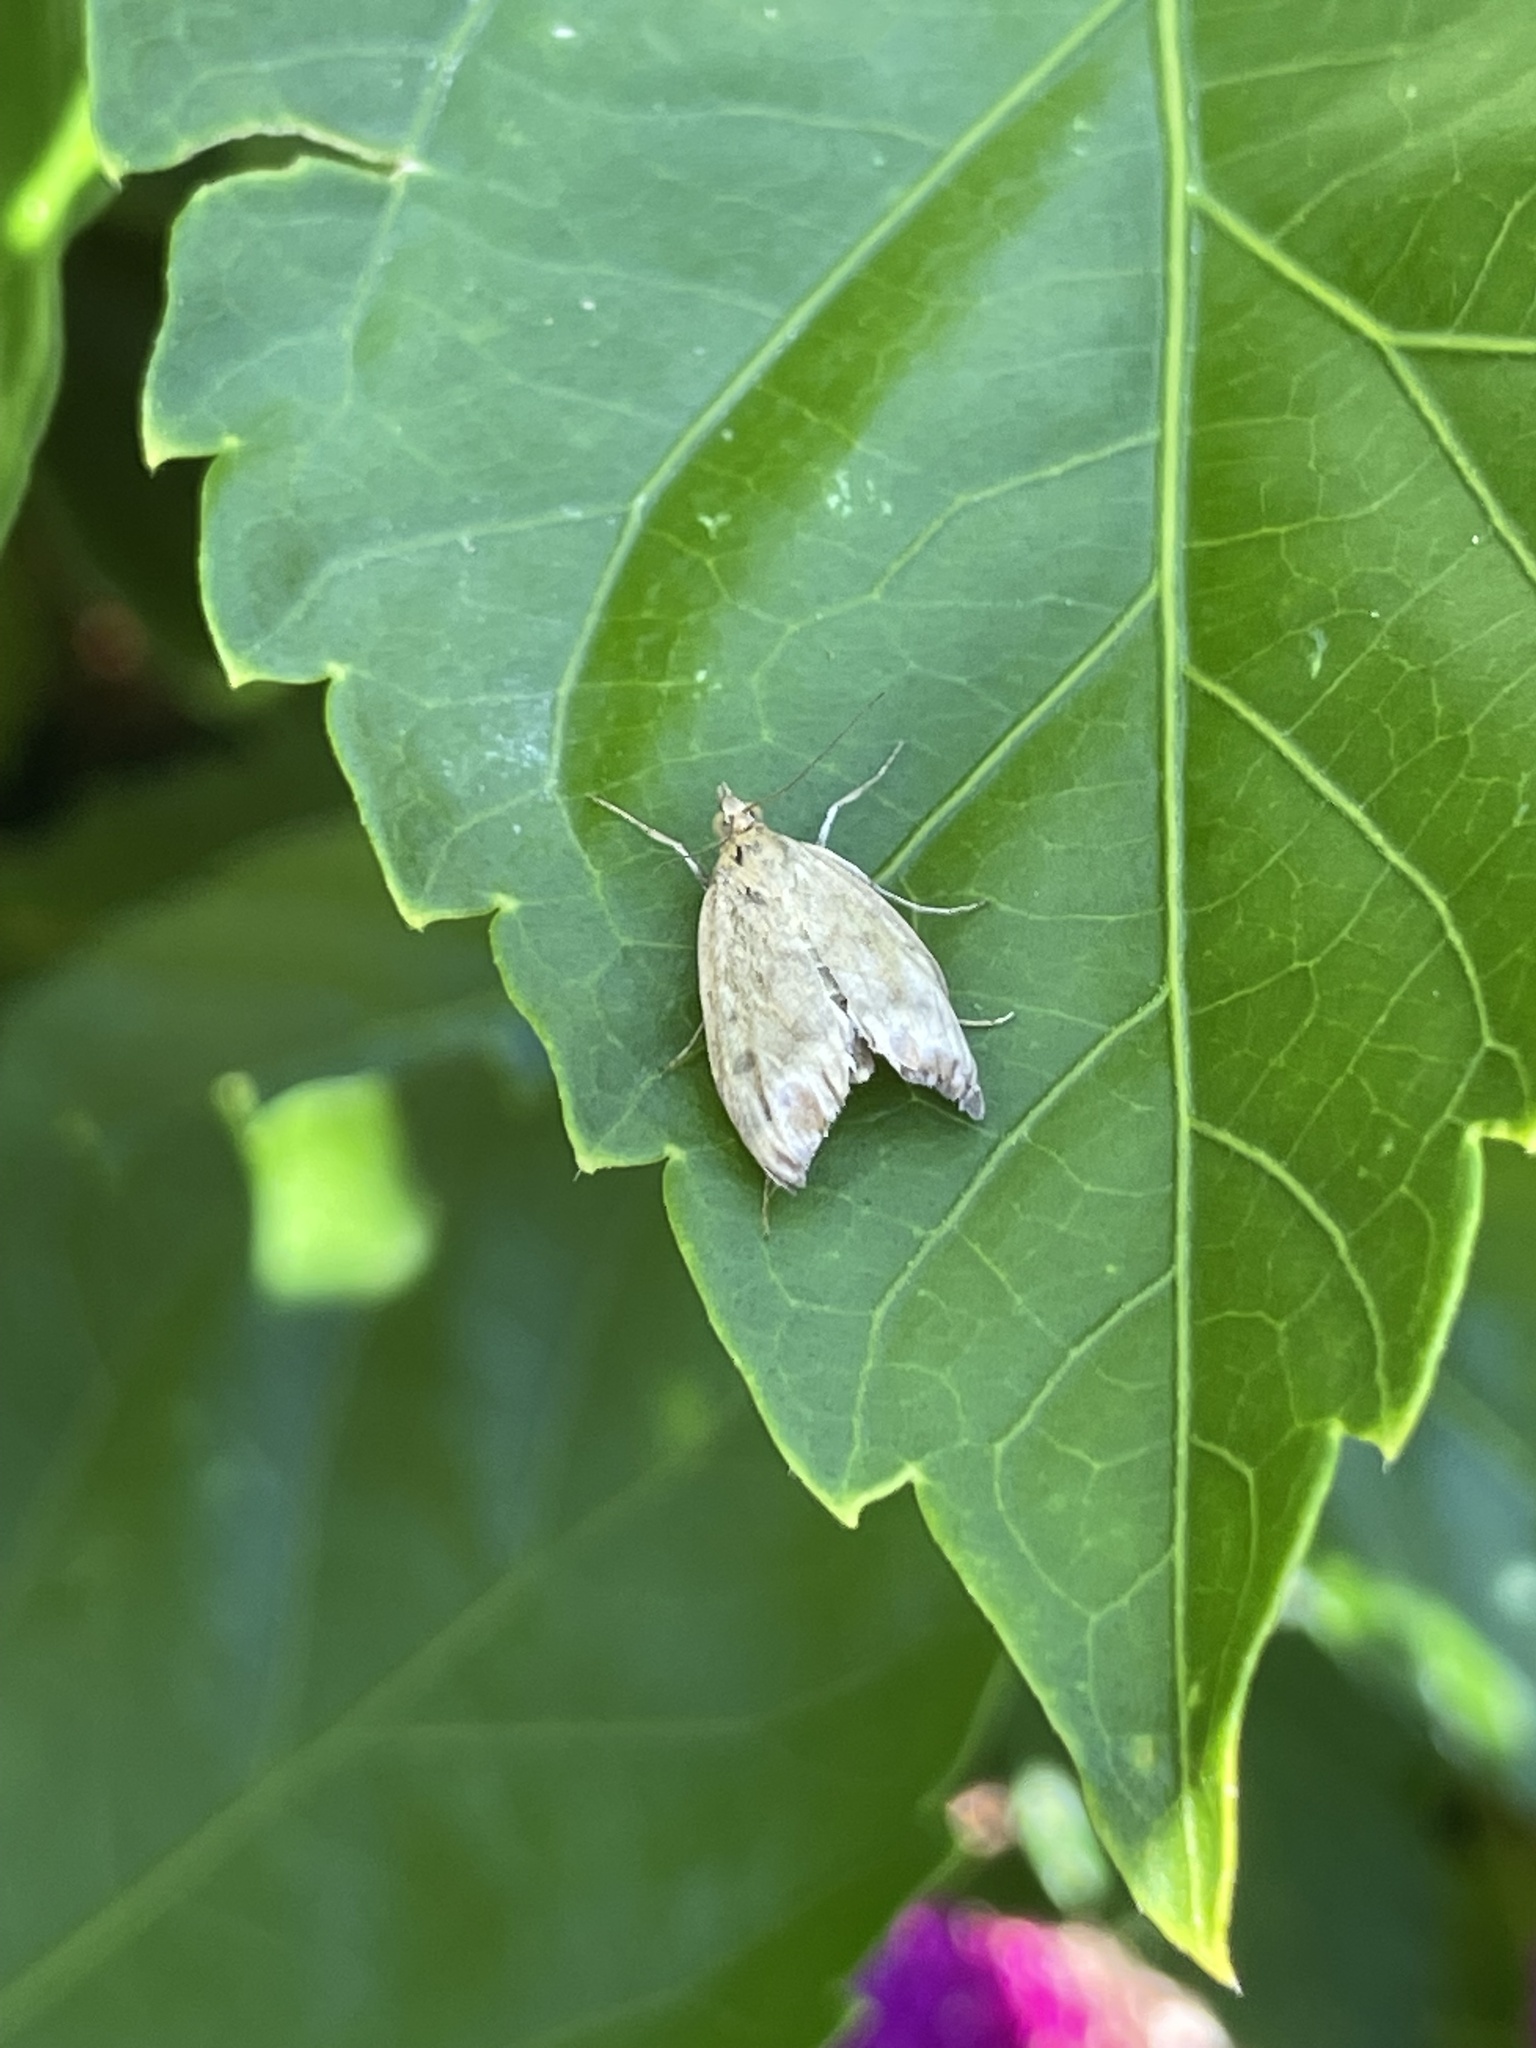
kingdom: Animalia
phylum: Arthropoda
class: Insecta
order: Lepidoptera
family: Crambidae
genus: Achyra
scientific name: Achyra rantalis
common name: Garden webworm
